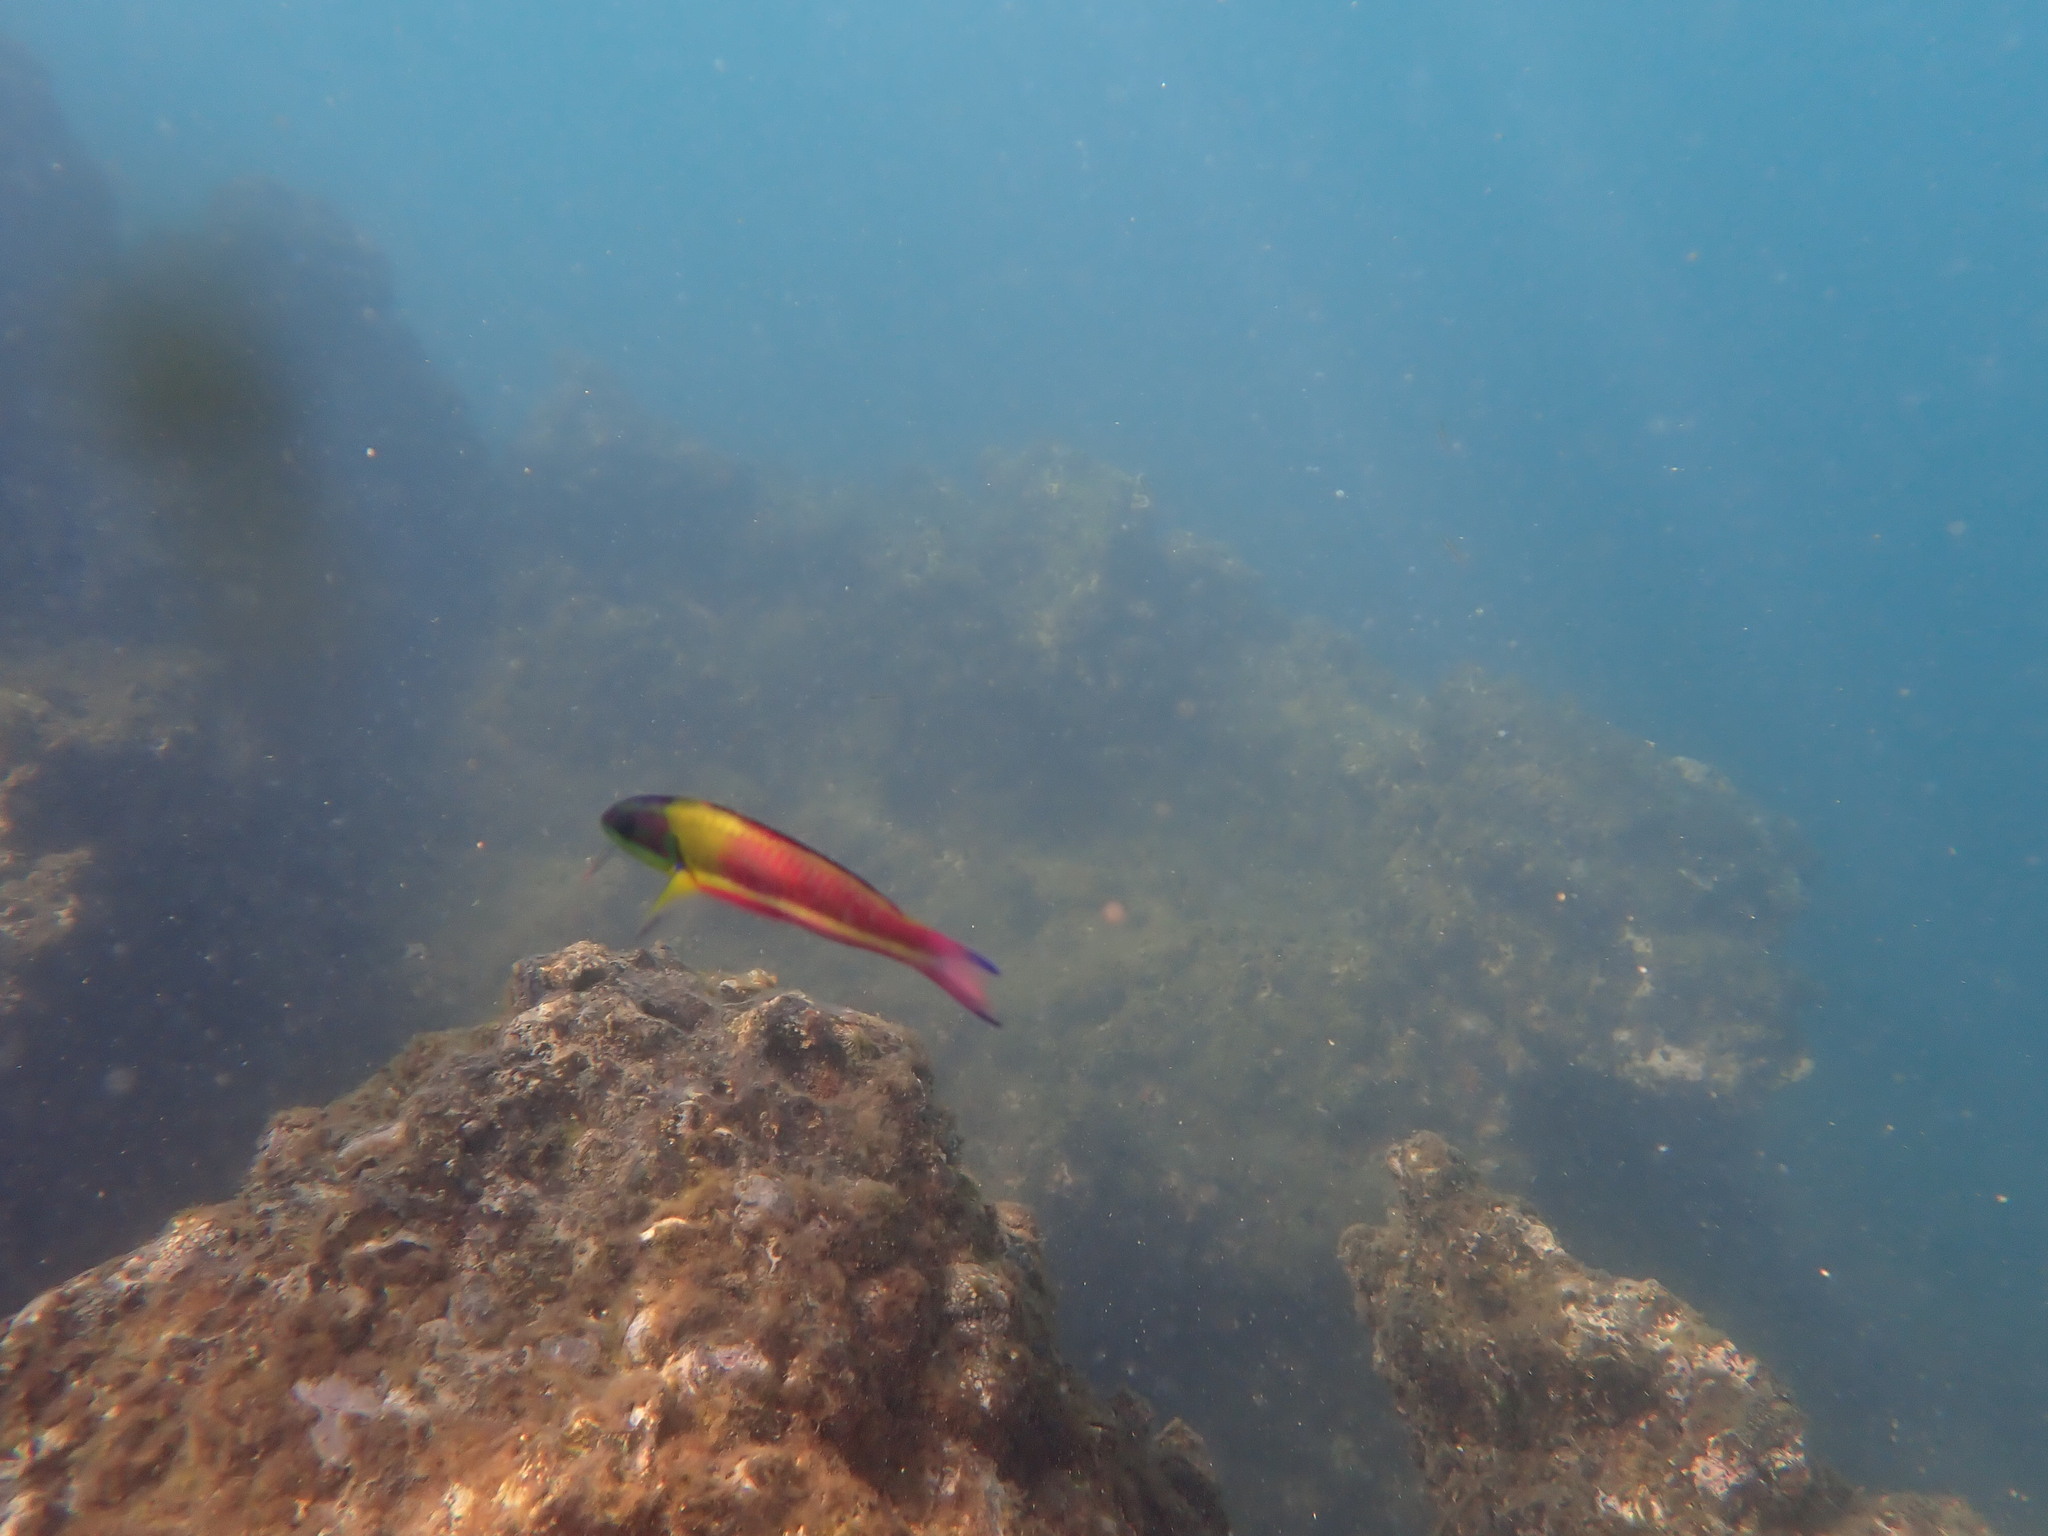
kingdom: Animalia
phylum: Chordata
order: Perciformes
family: Labridae
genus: Thalassoma
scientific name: Thalassoma lucasanum
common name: Cortez rainbow wrasse
